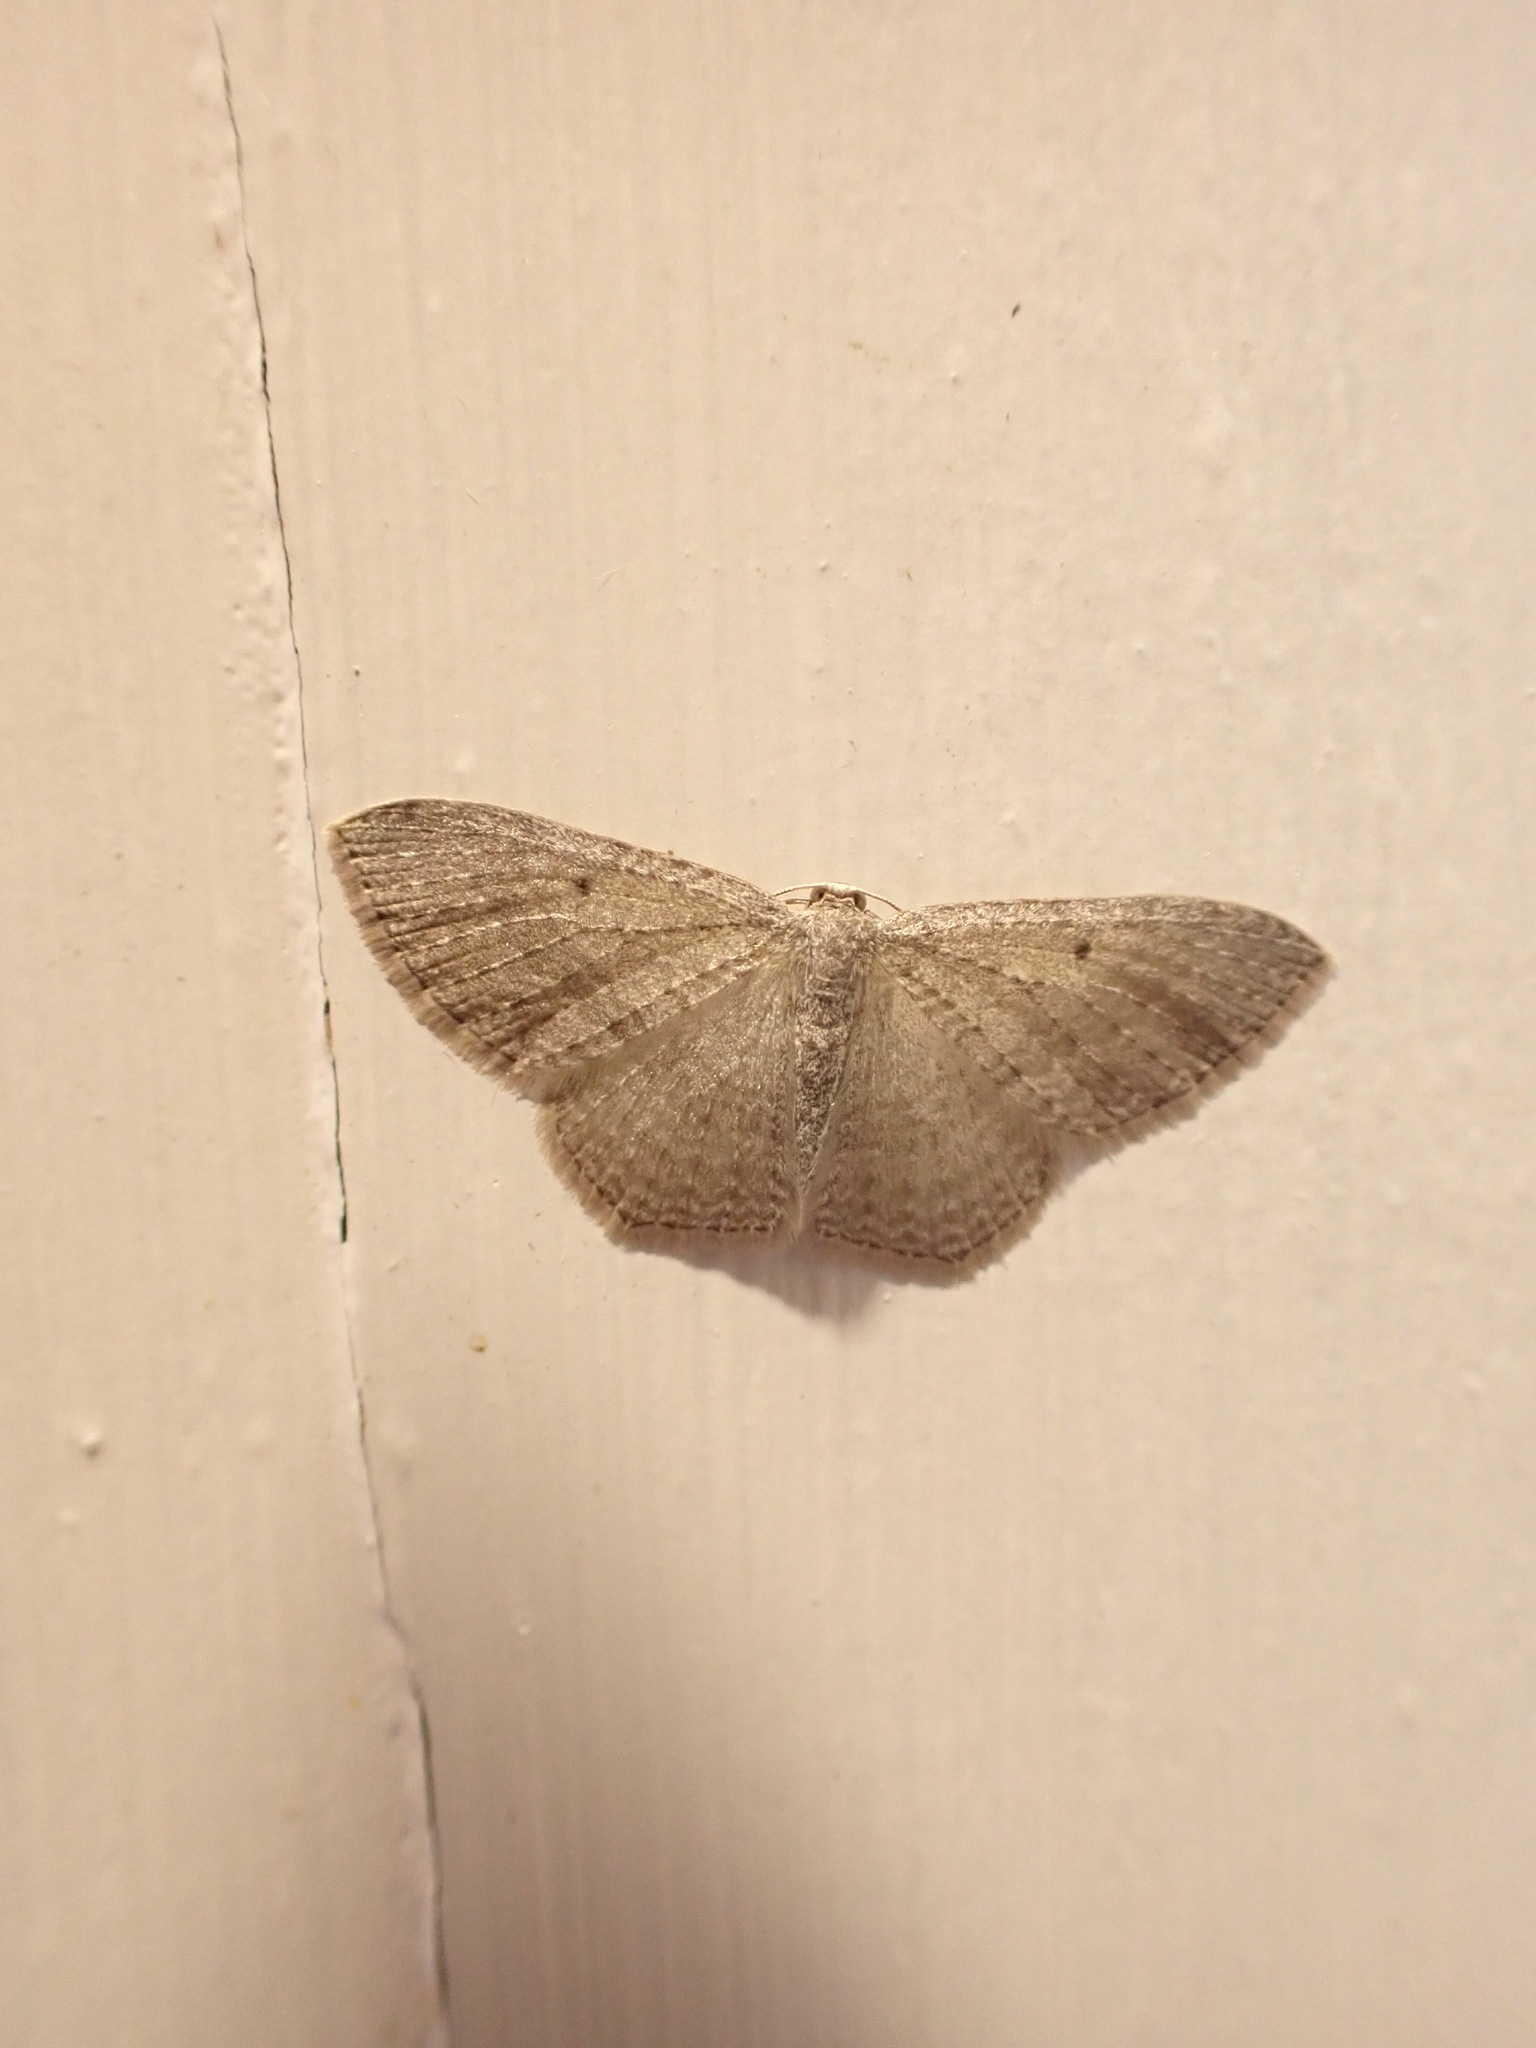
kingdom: Animalia
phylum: Arthropoda
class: Insecta
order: Lepidoptera
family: Geometridae
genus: Poecilasthena
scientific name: Poecilasthena pulchraria
